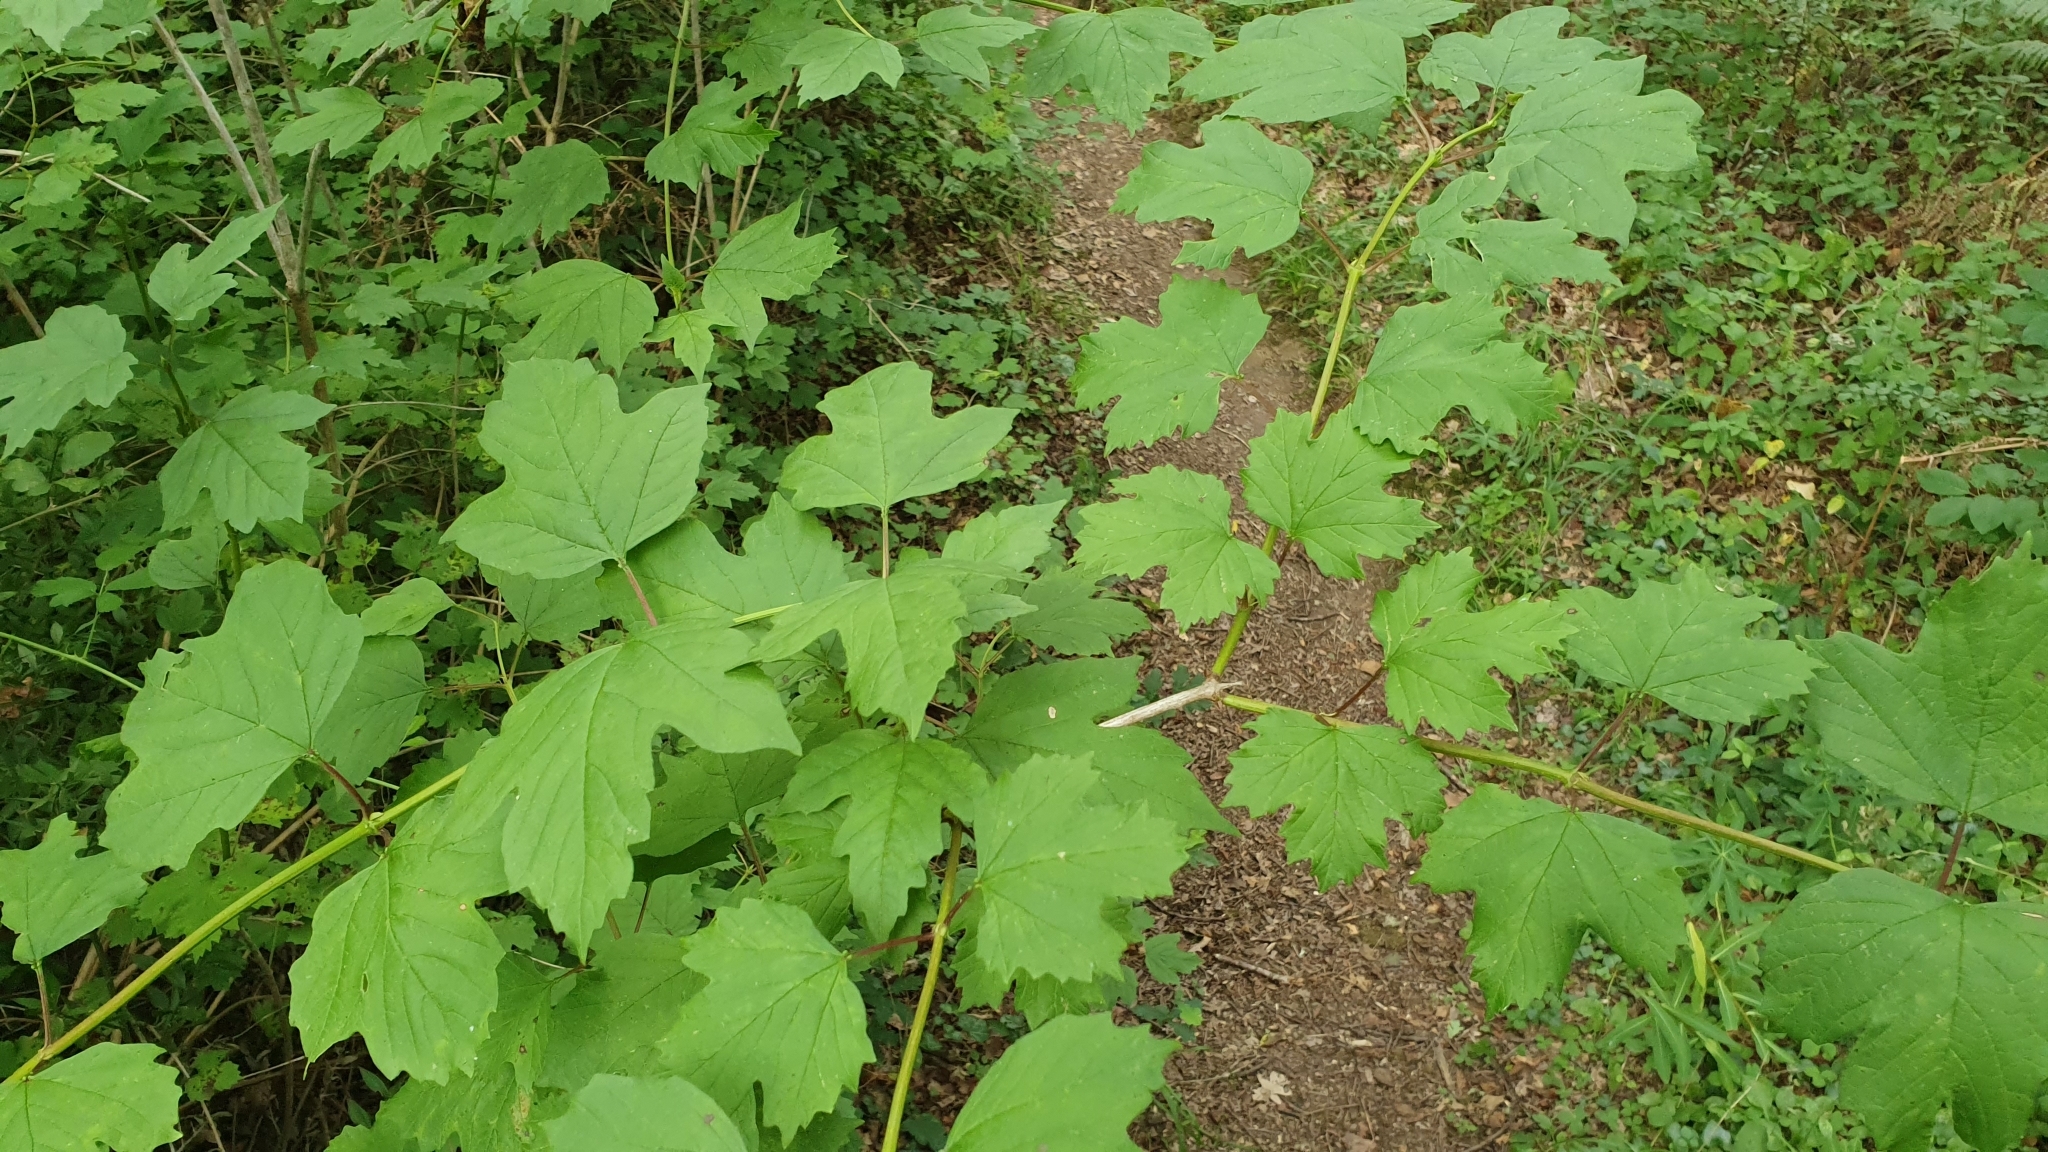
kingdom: Plantae
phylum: Tracheophyta
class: Magnoliopsida
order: Dipsacales
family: Viburnaceae
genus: Viburnum
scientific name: Viburnum opulus
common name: Guelder-rose
